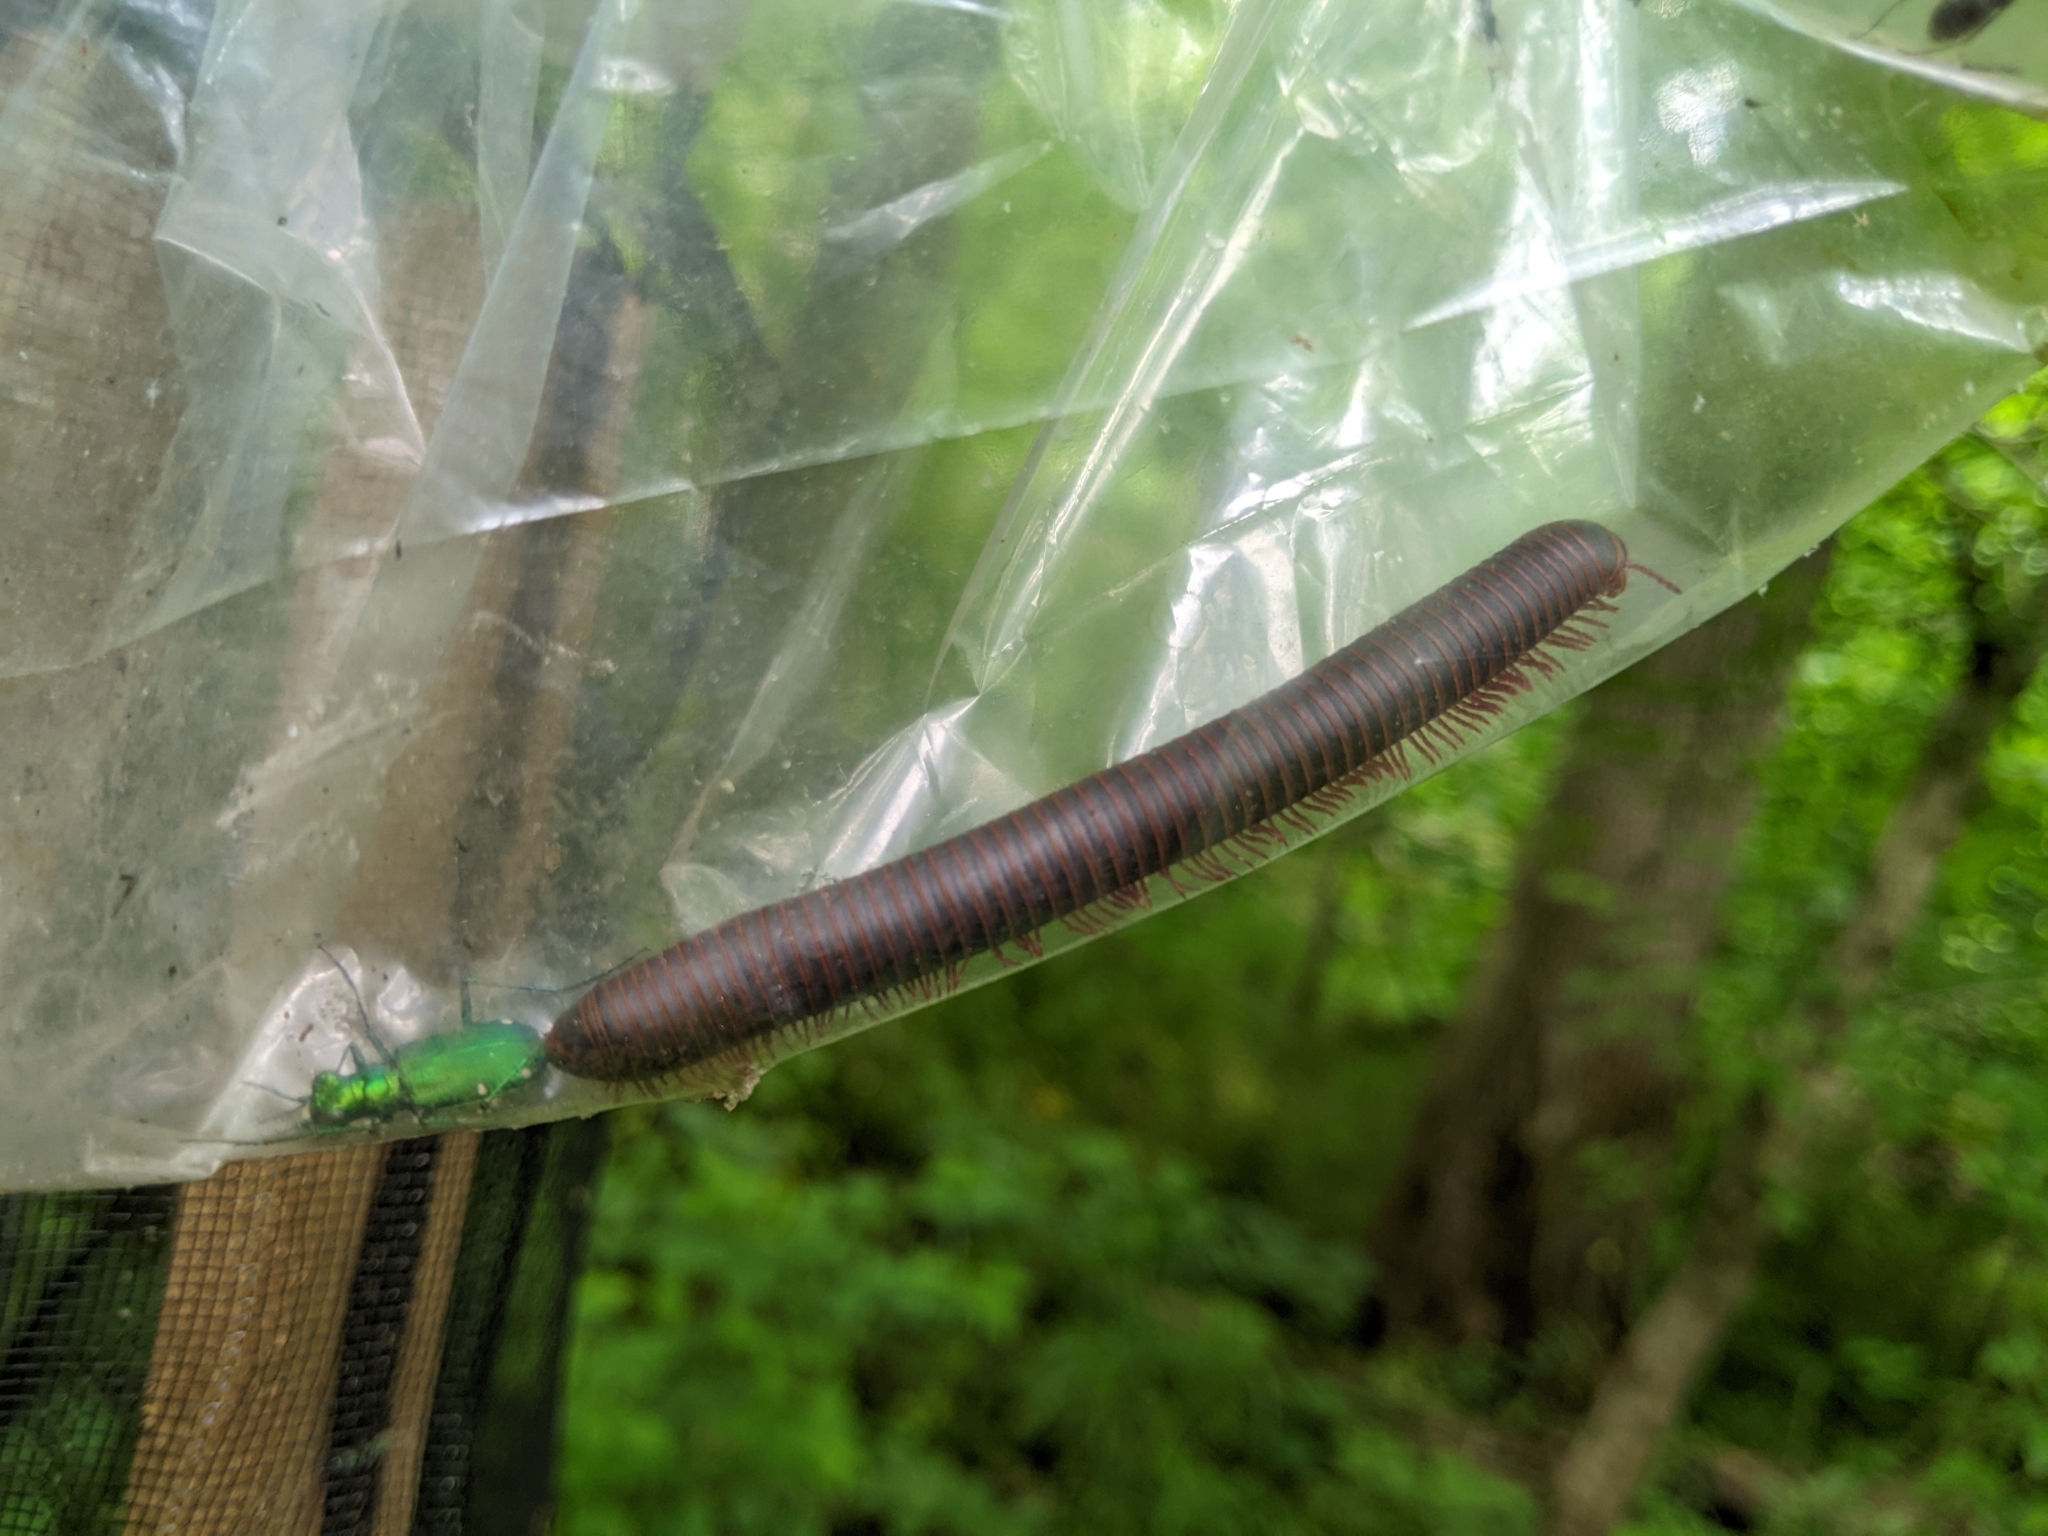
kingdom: Animalia
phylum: Arthropoda
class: Diplopoda
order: Spirobolida
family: Spirobolidae
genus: Narceus
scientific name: Narceus
